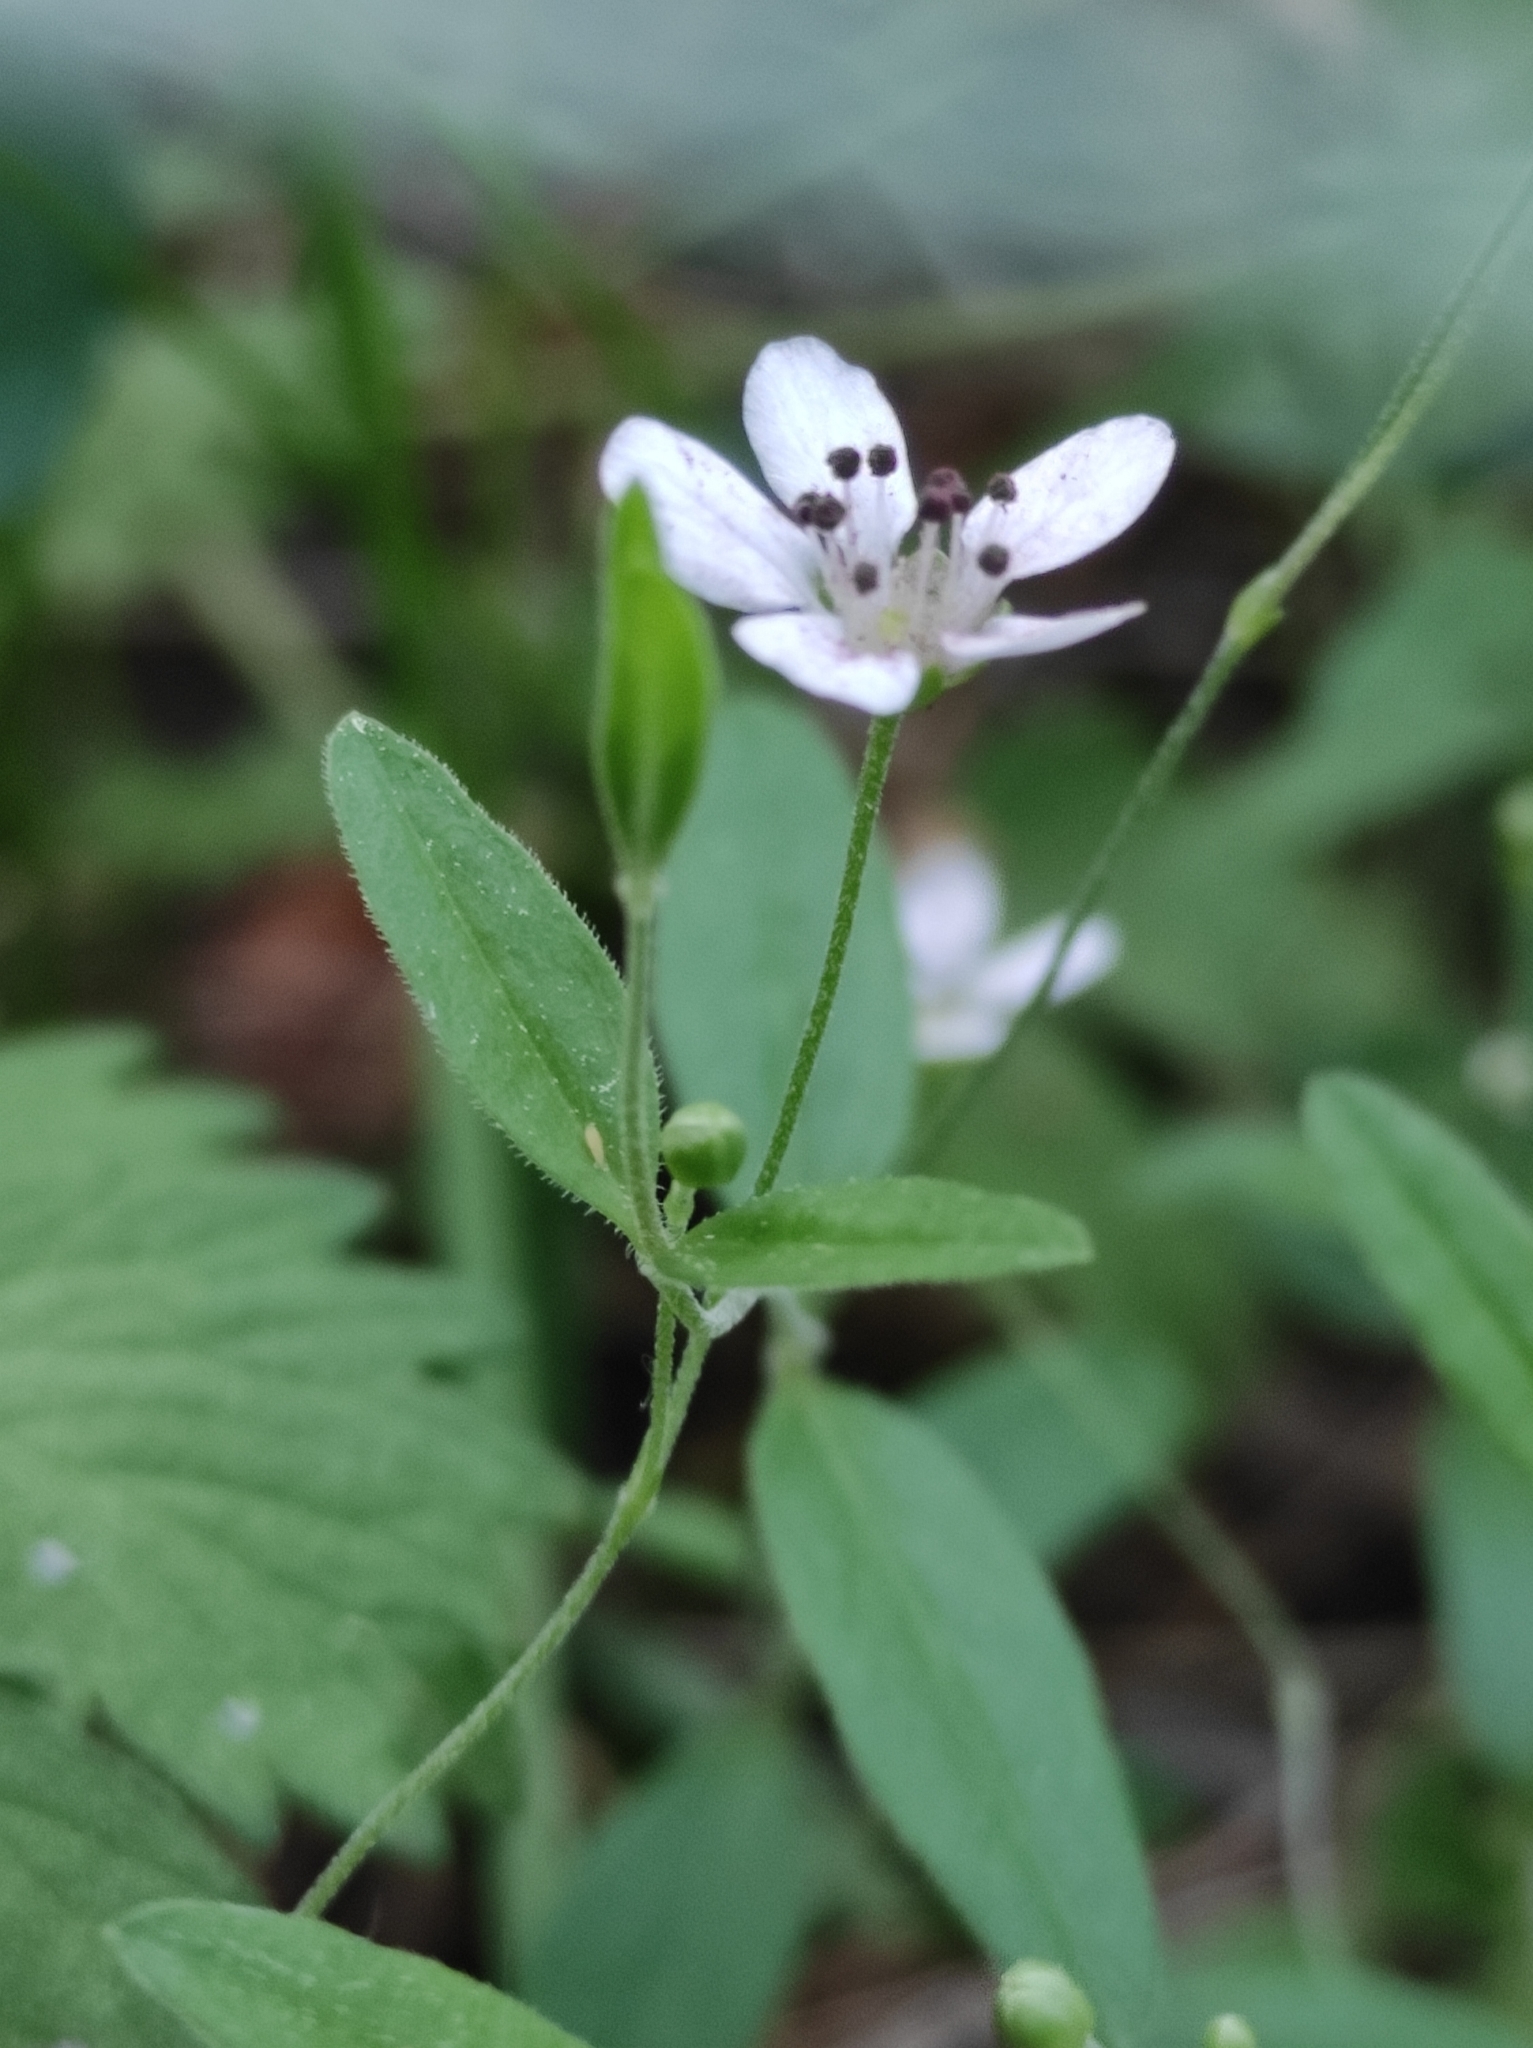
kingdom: Plantae
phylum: Tracheophyta
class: Magnoliopsida
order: Caryophyllales
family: Caryophyllaceae
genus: Moehringia
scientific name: Moehringia lateriflora
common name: Blunt-leaved sandwort
